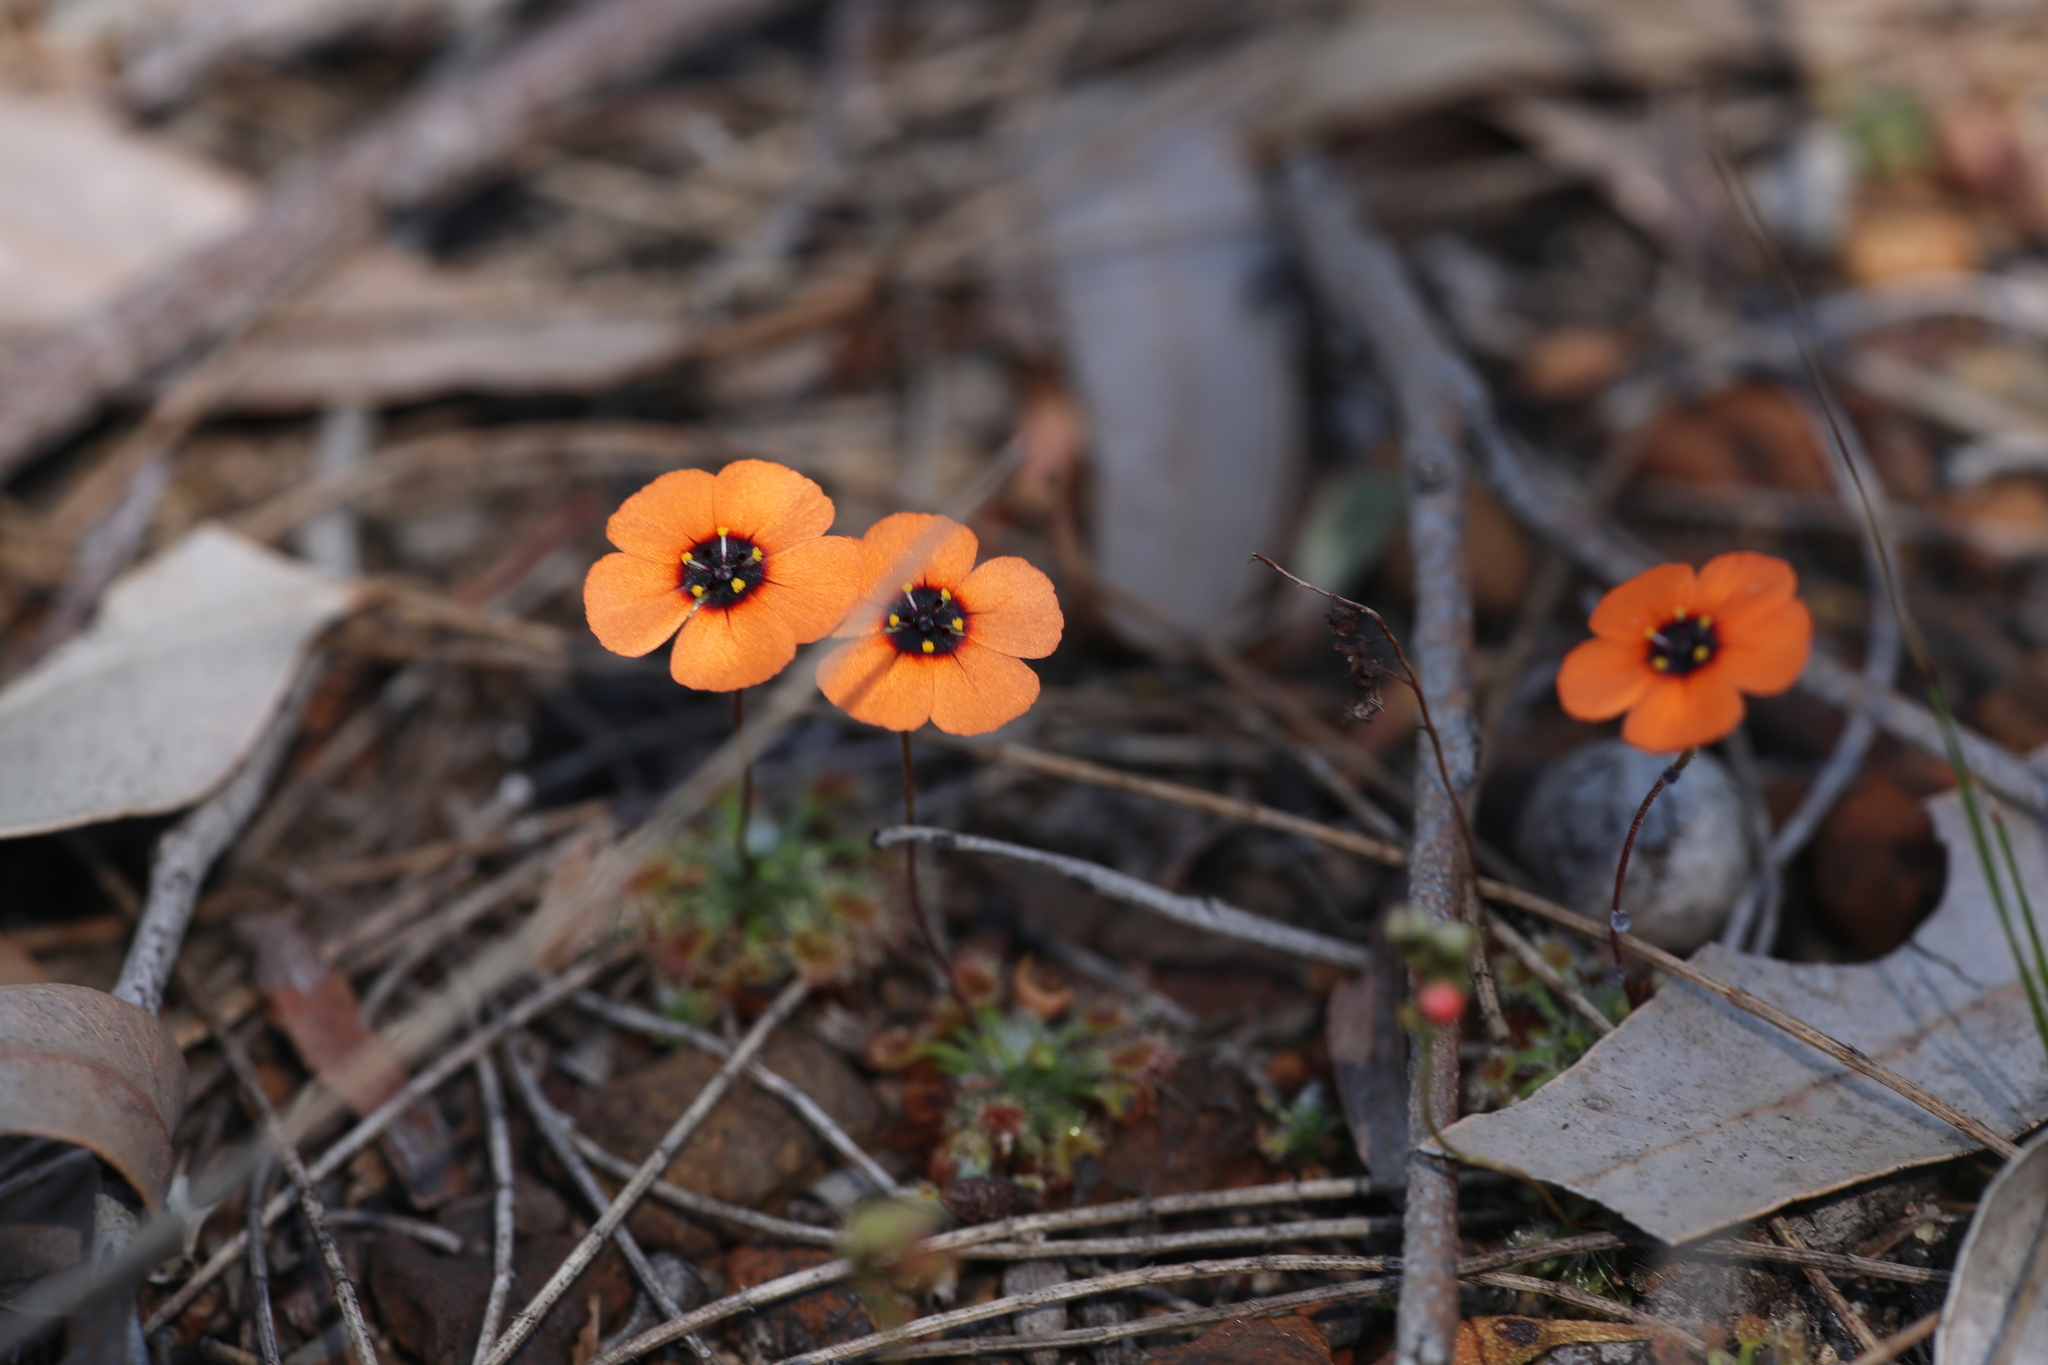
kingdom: Plantae
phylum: Tracheophyta
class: Magnoliopsida
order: Caryophyllales
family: Droseraceae
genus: Drosera
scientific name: Drosera hyperostigma
